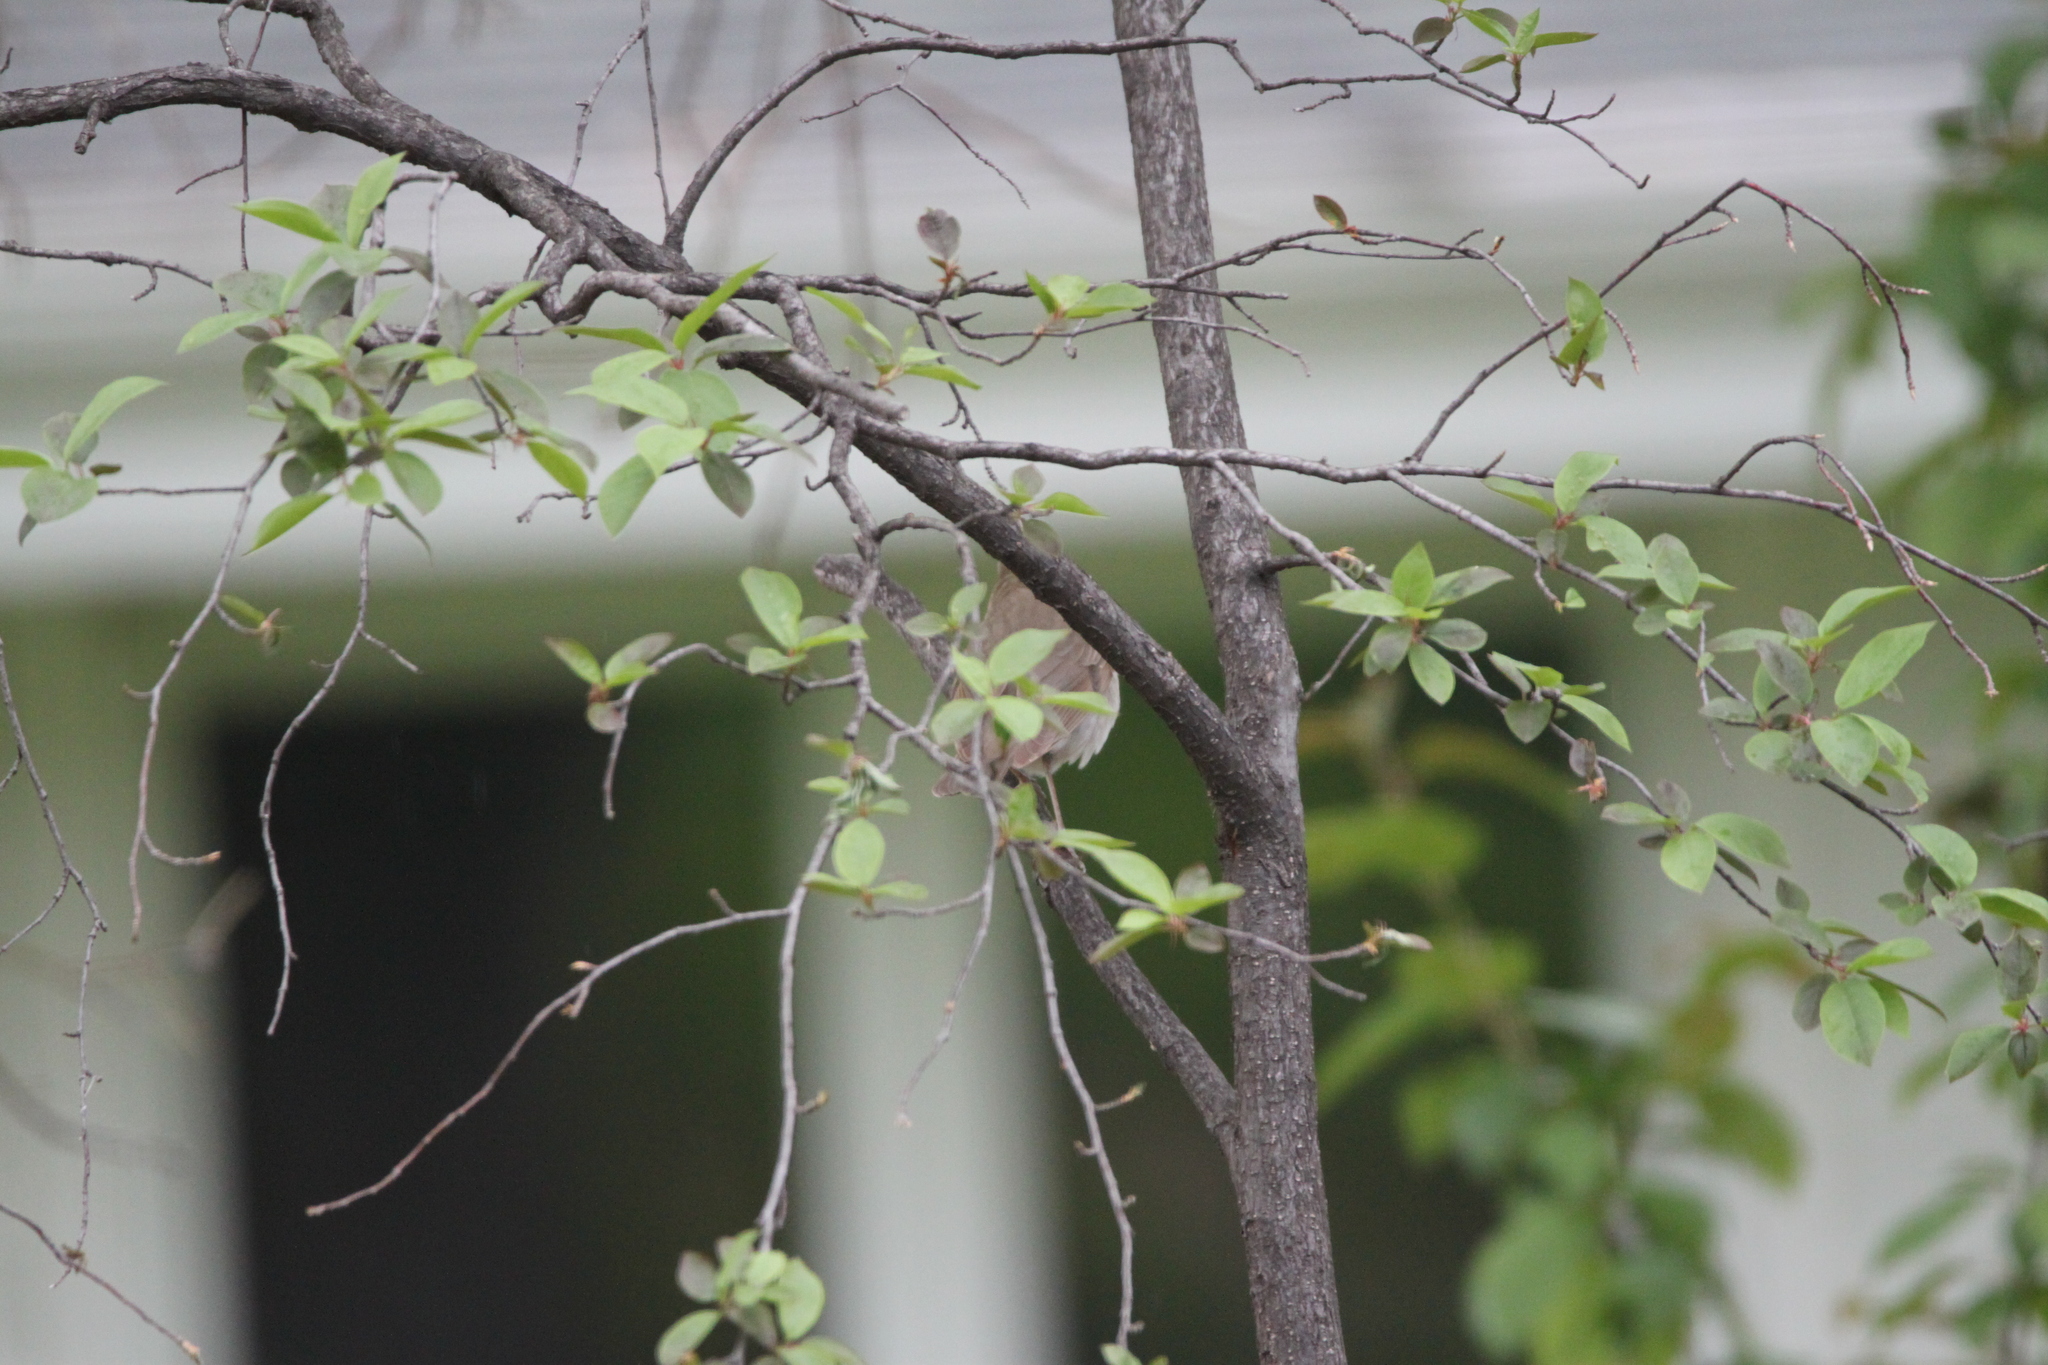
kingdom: Animalia
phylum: Chordata
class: Aves
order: Passeriformes
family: Turdidae
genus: Catharus
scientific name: Catharus ustulatus
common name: Swainson's thrush
